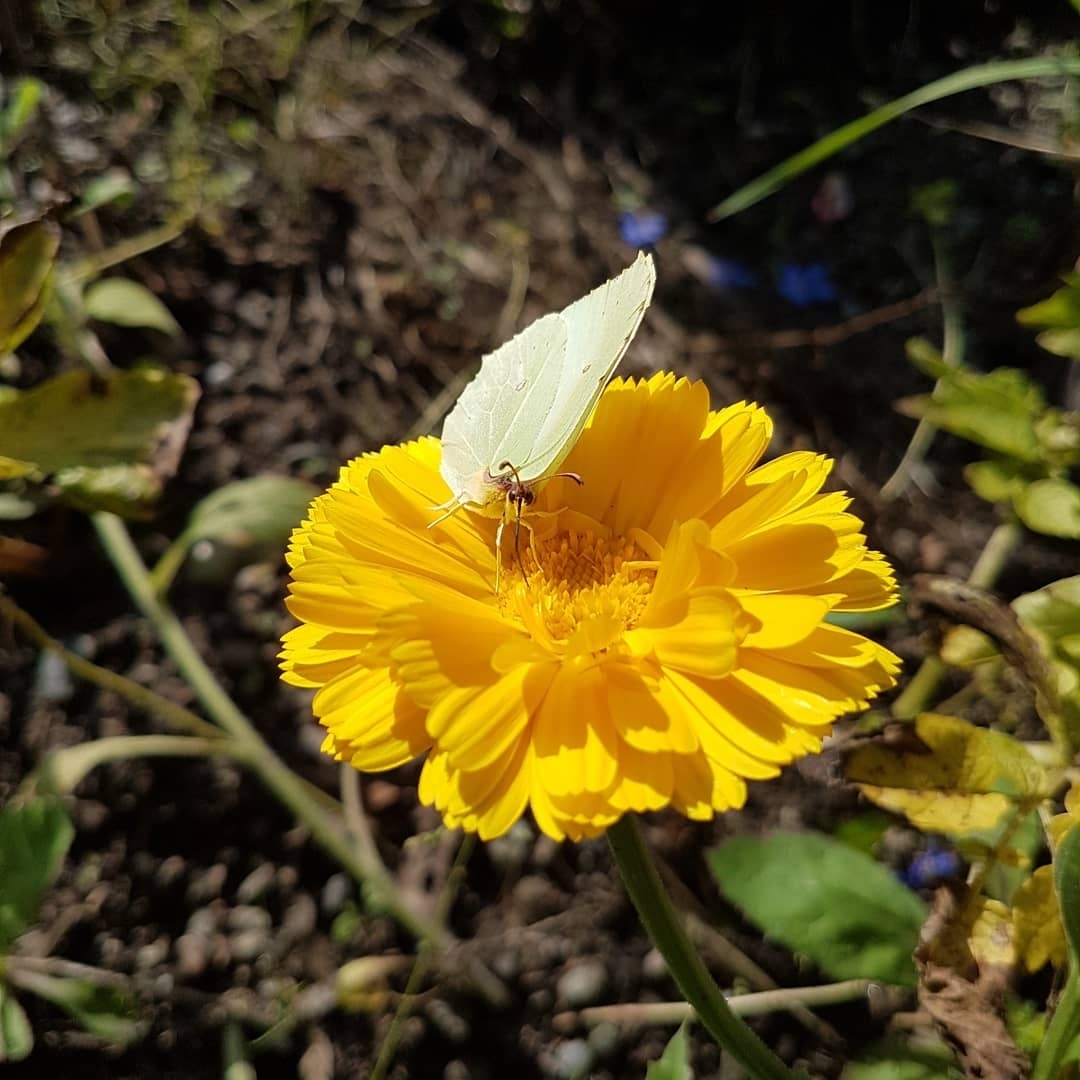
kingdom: Animalia
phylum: Arthropoda
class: Insecta
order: Lepidoptera
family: Pieridae
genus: Gonepteryx
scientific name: Gonepteryx rhamni
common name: Brimstone
